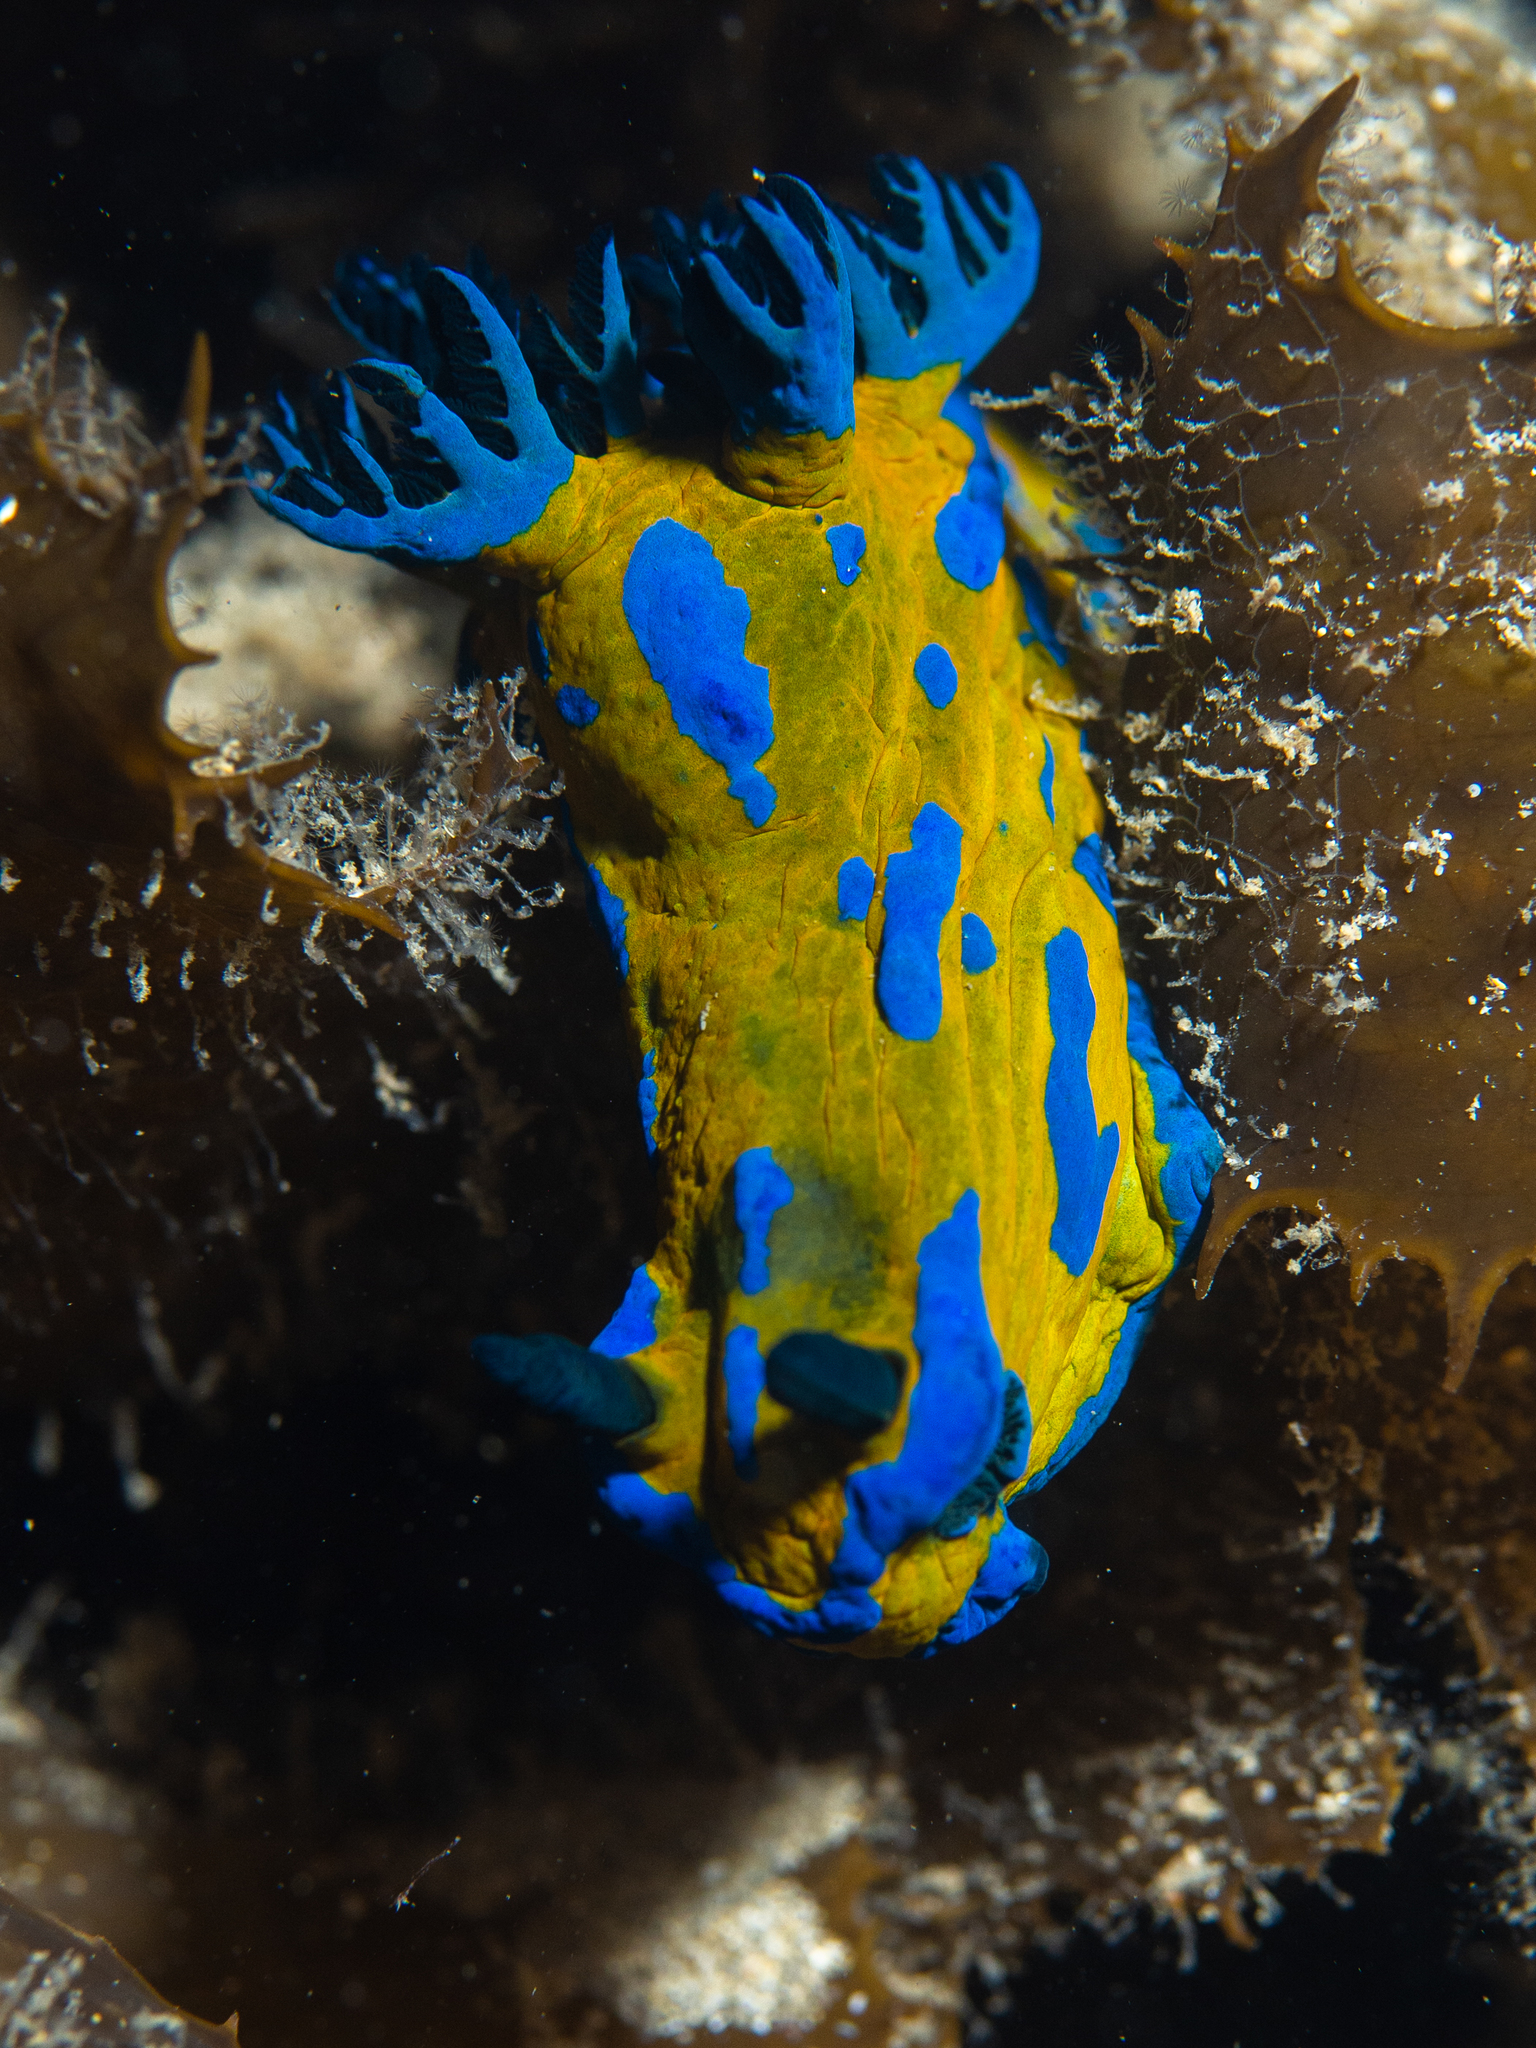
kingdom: Animalia
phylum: Mollusca
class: Gastropoda
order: Nudibranchia
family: Polyceridae
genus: Tambja
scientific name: Tambja verconis
